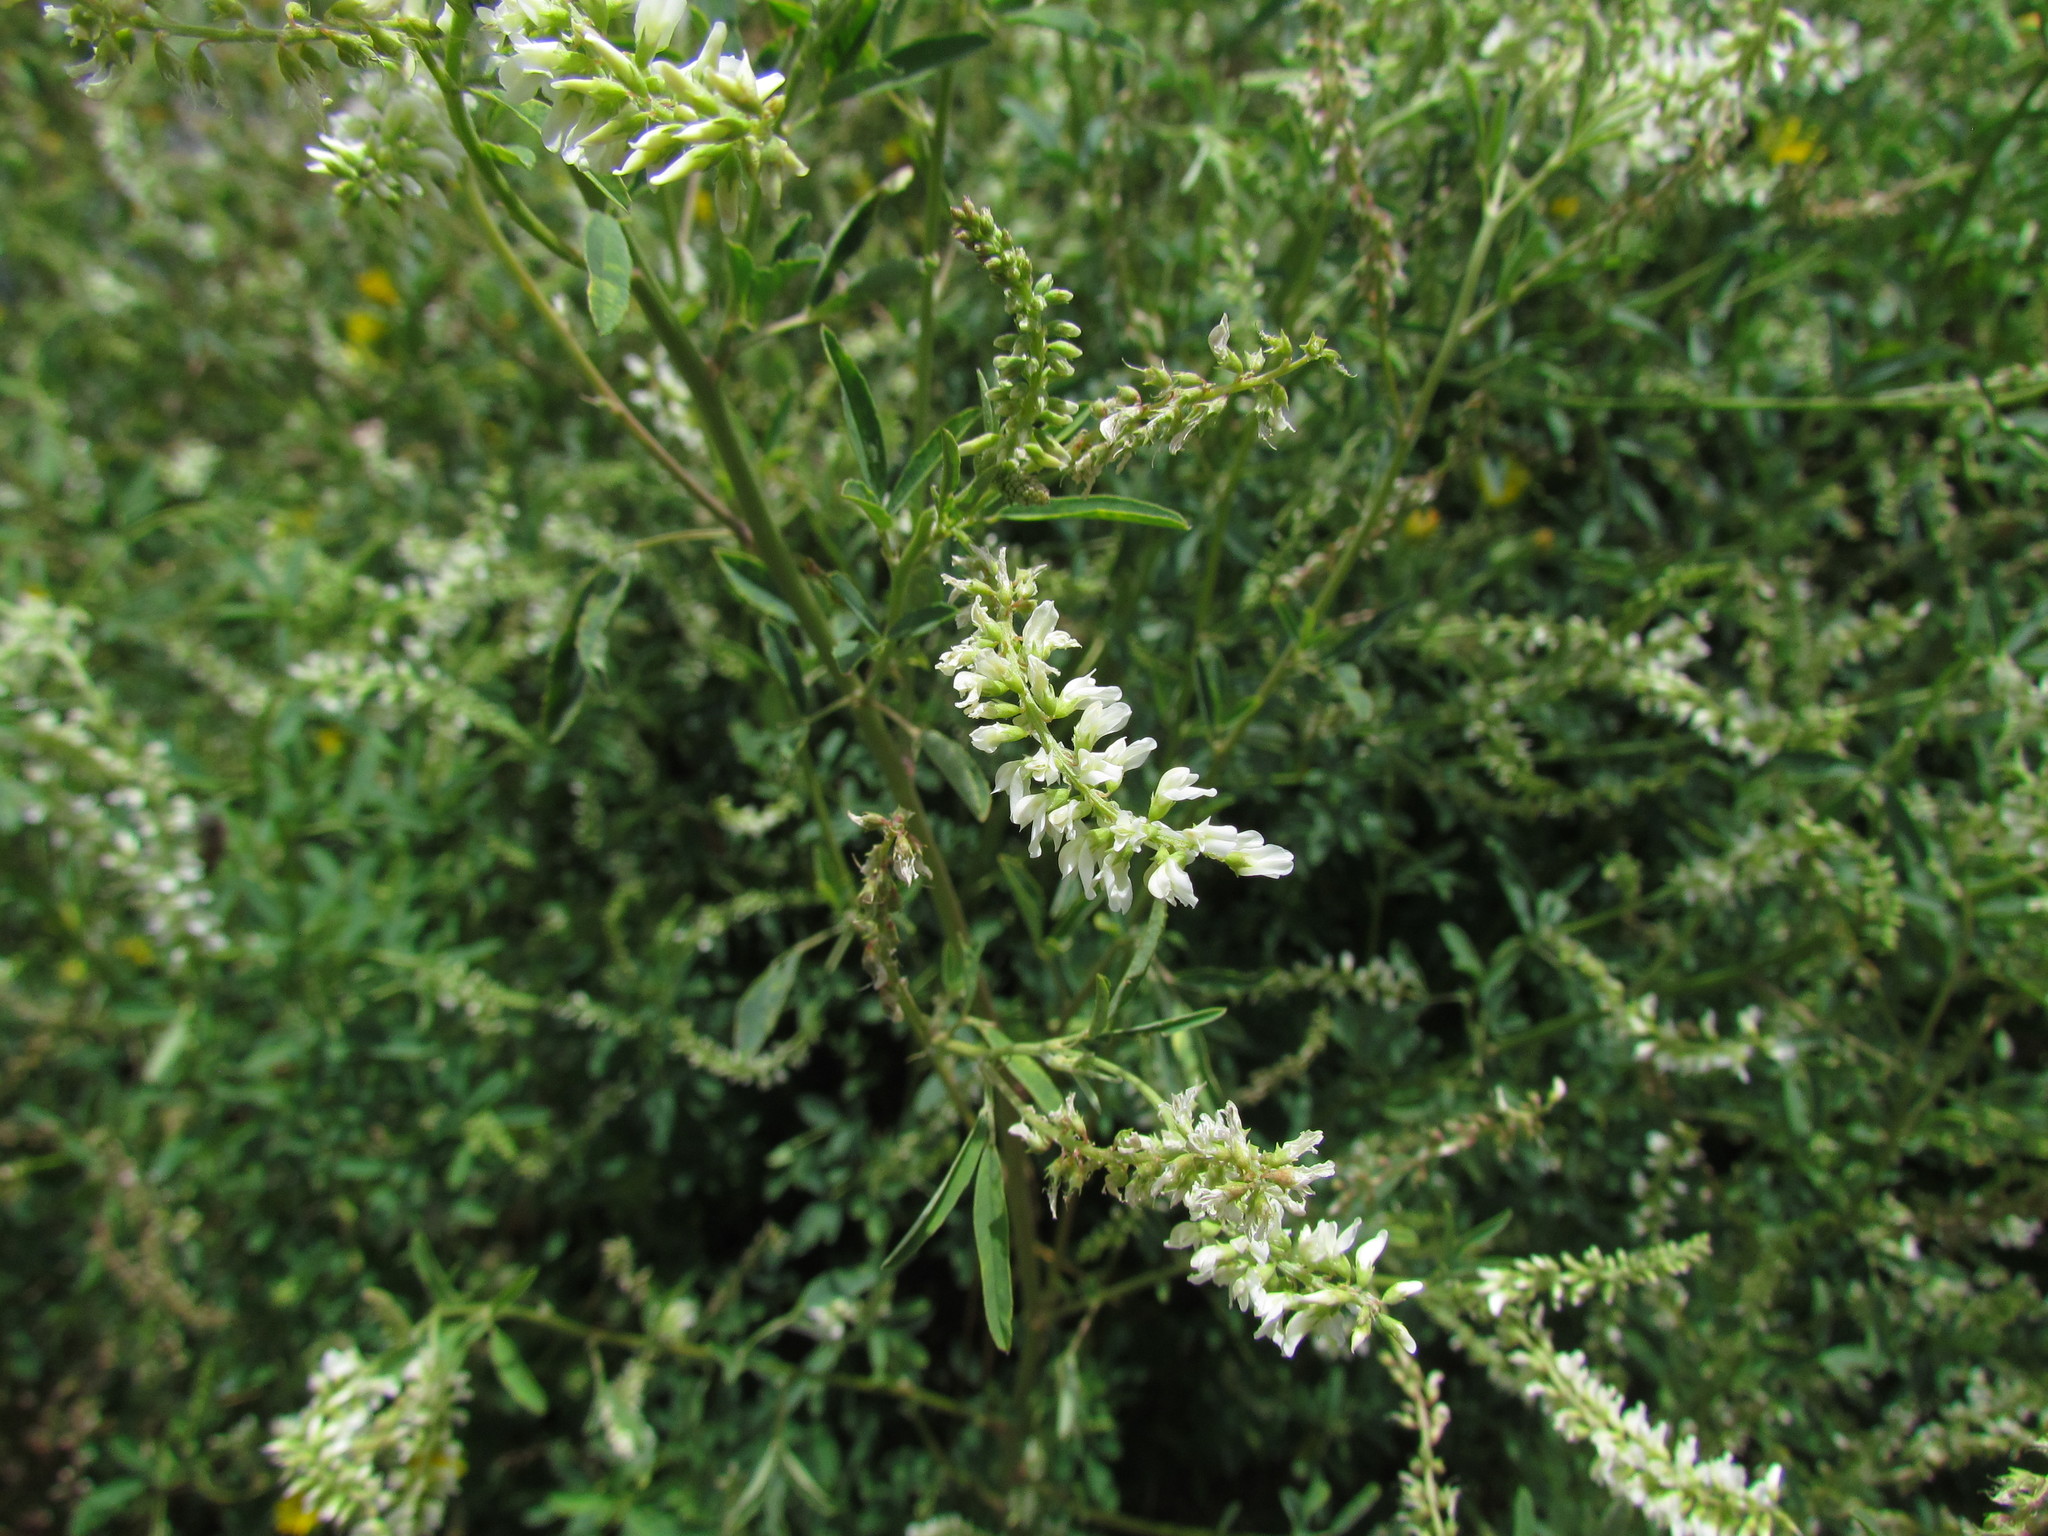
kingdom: Plantae
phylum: Tracheophyta
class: Magnoliopsida
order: Fabales
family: Fabaceae
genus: Melilotus
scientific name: Melilotus albus
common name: White melilot
